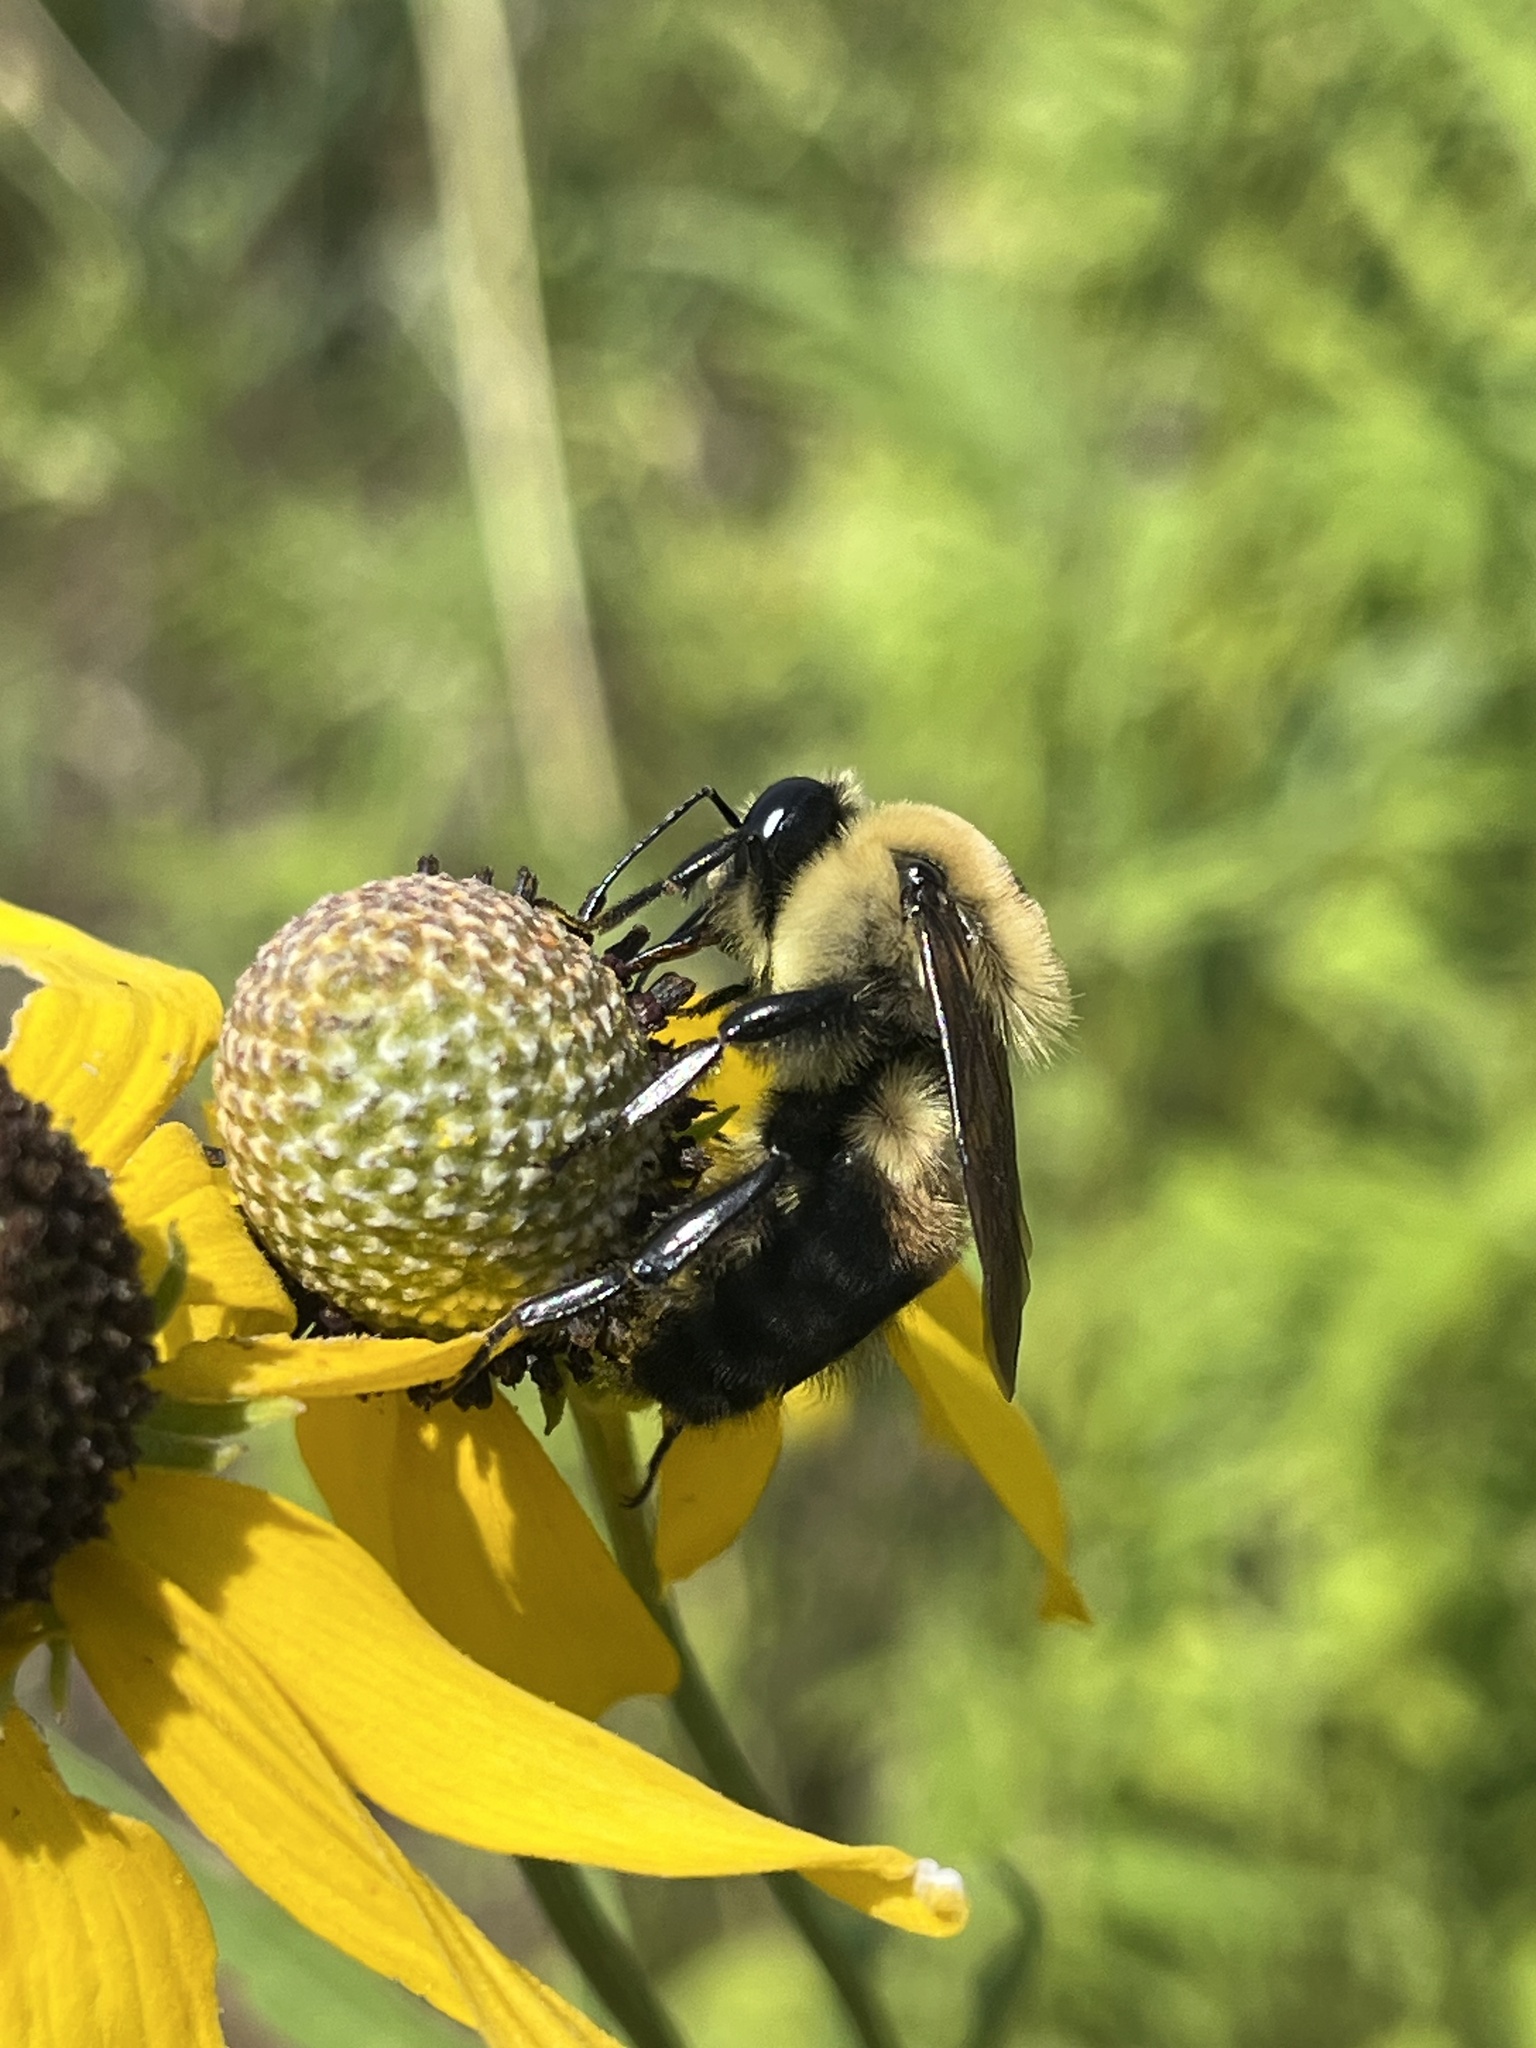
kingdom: Animalia
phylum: Arthropoda
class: Insecta
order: Hymenoptera
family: Apidae
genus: Bombus
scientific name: Bombus griseocollis
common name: Brown-belted bumble bee
